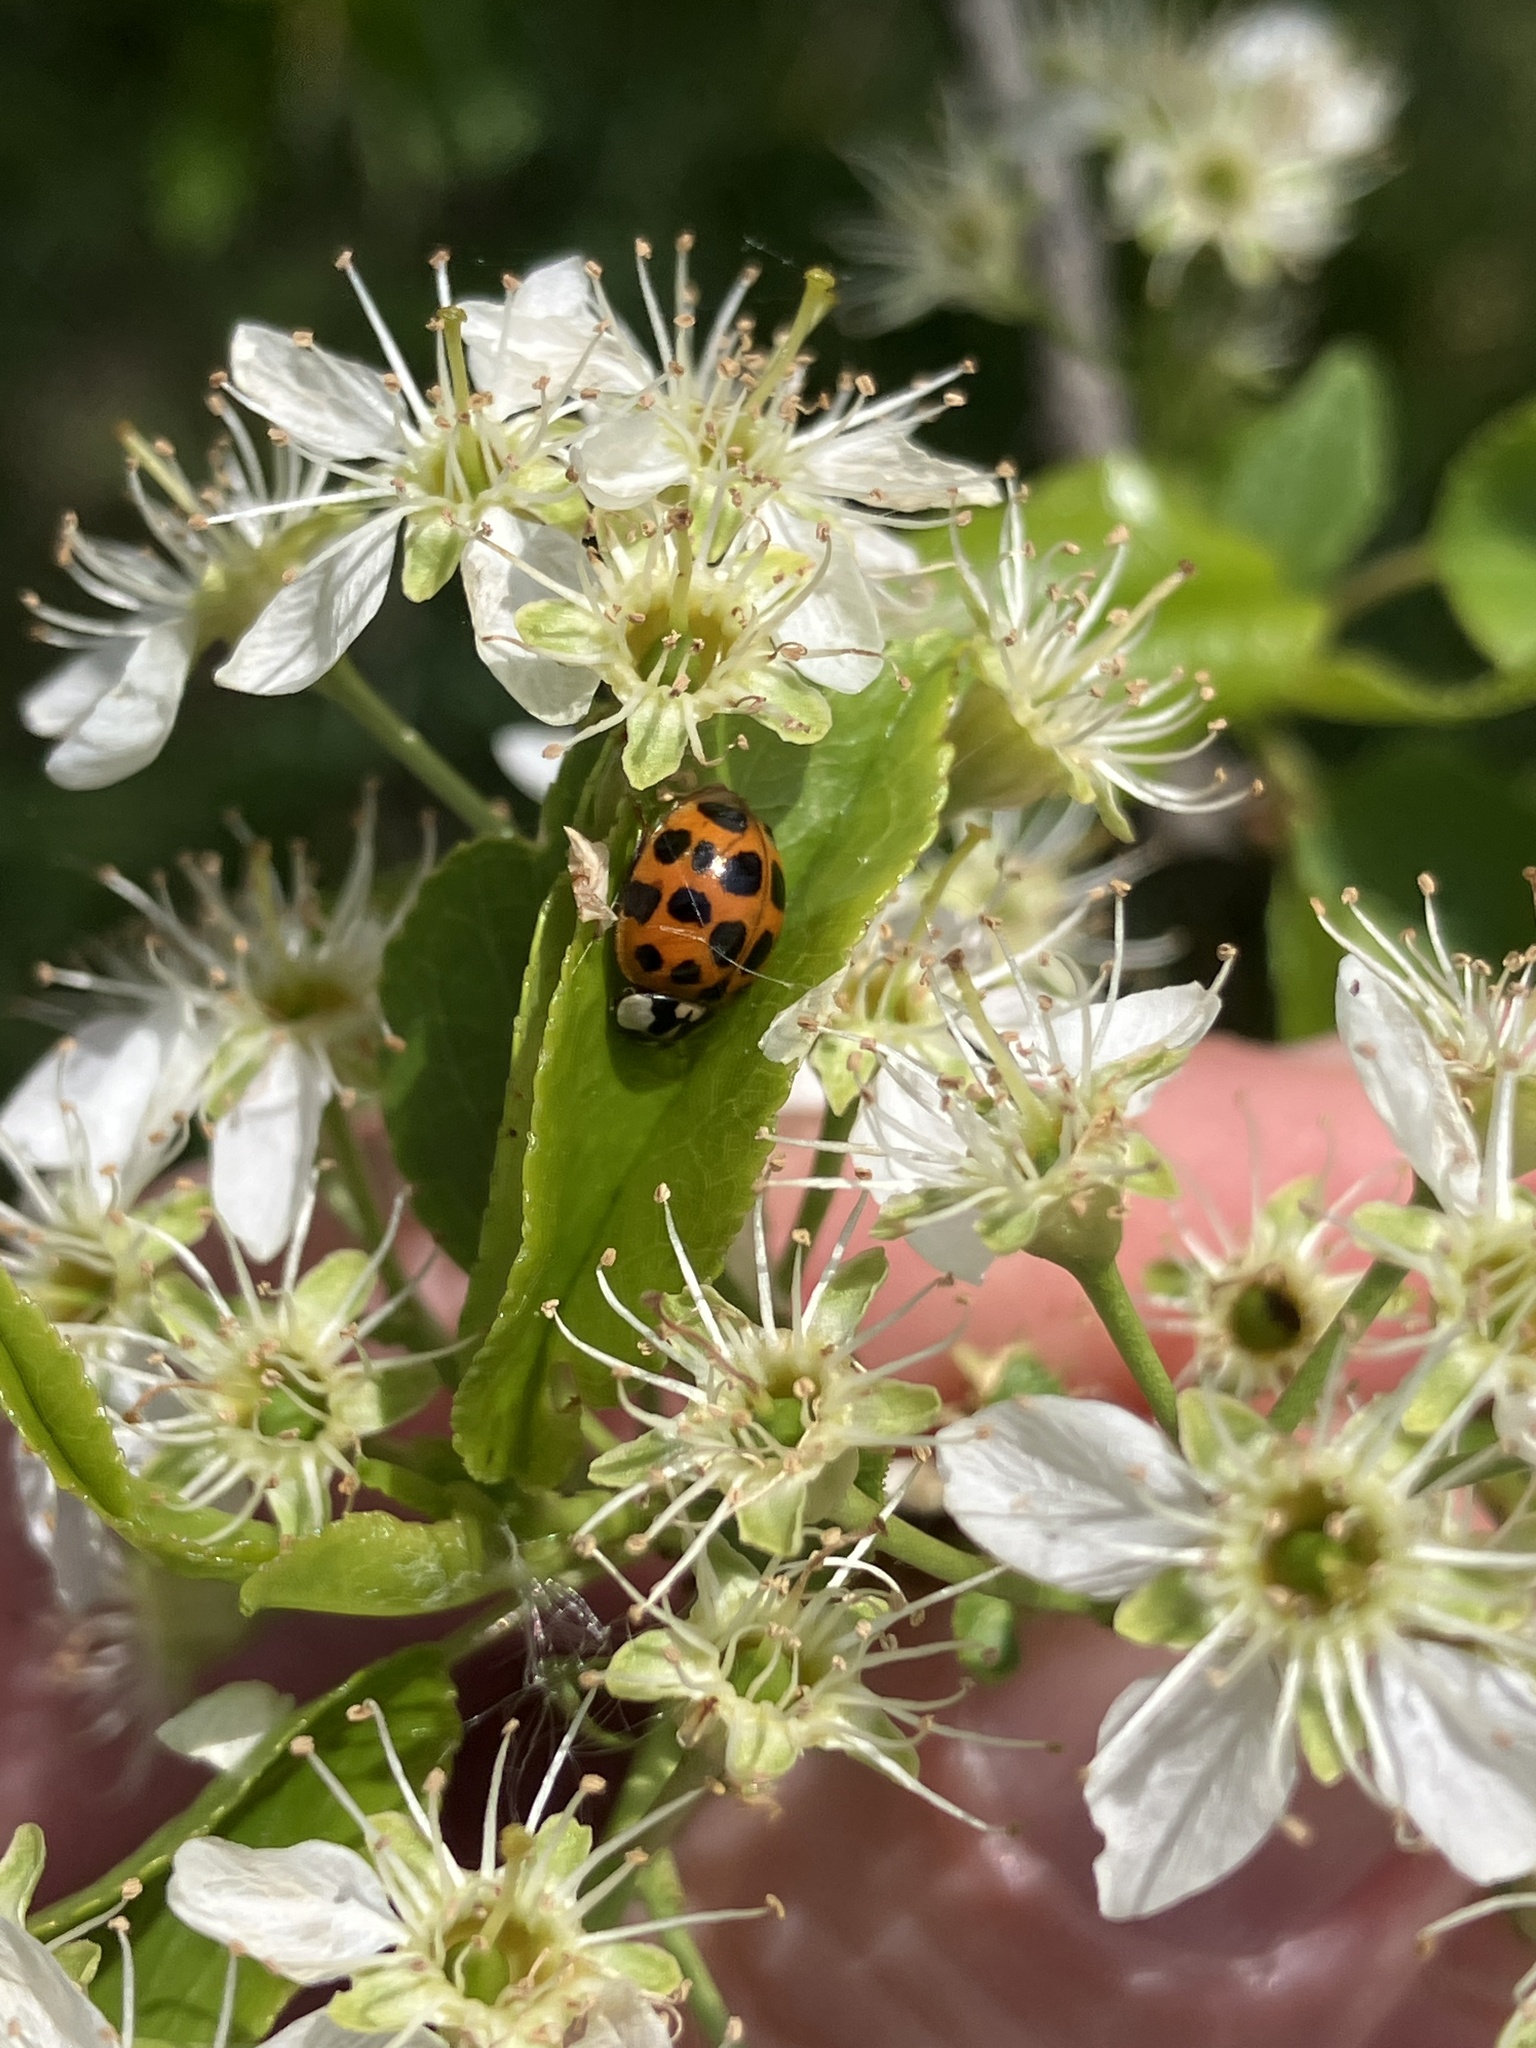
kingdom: Animalia
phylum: Arthropoda
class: Insecta
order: Coleoptera
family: Coccinellidae
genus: Harmonia
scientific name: Harmonia axyridis
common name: Harlequin ladybird
